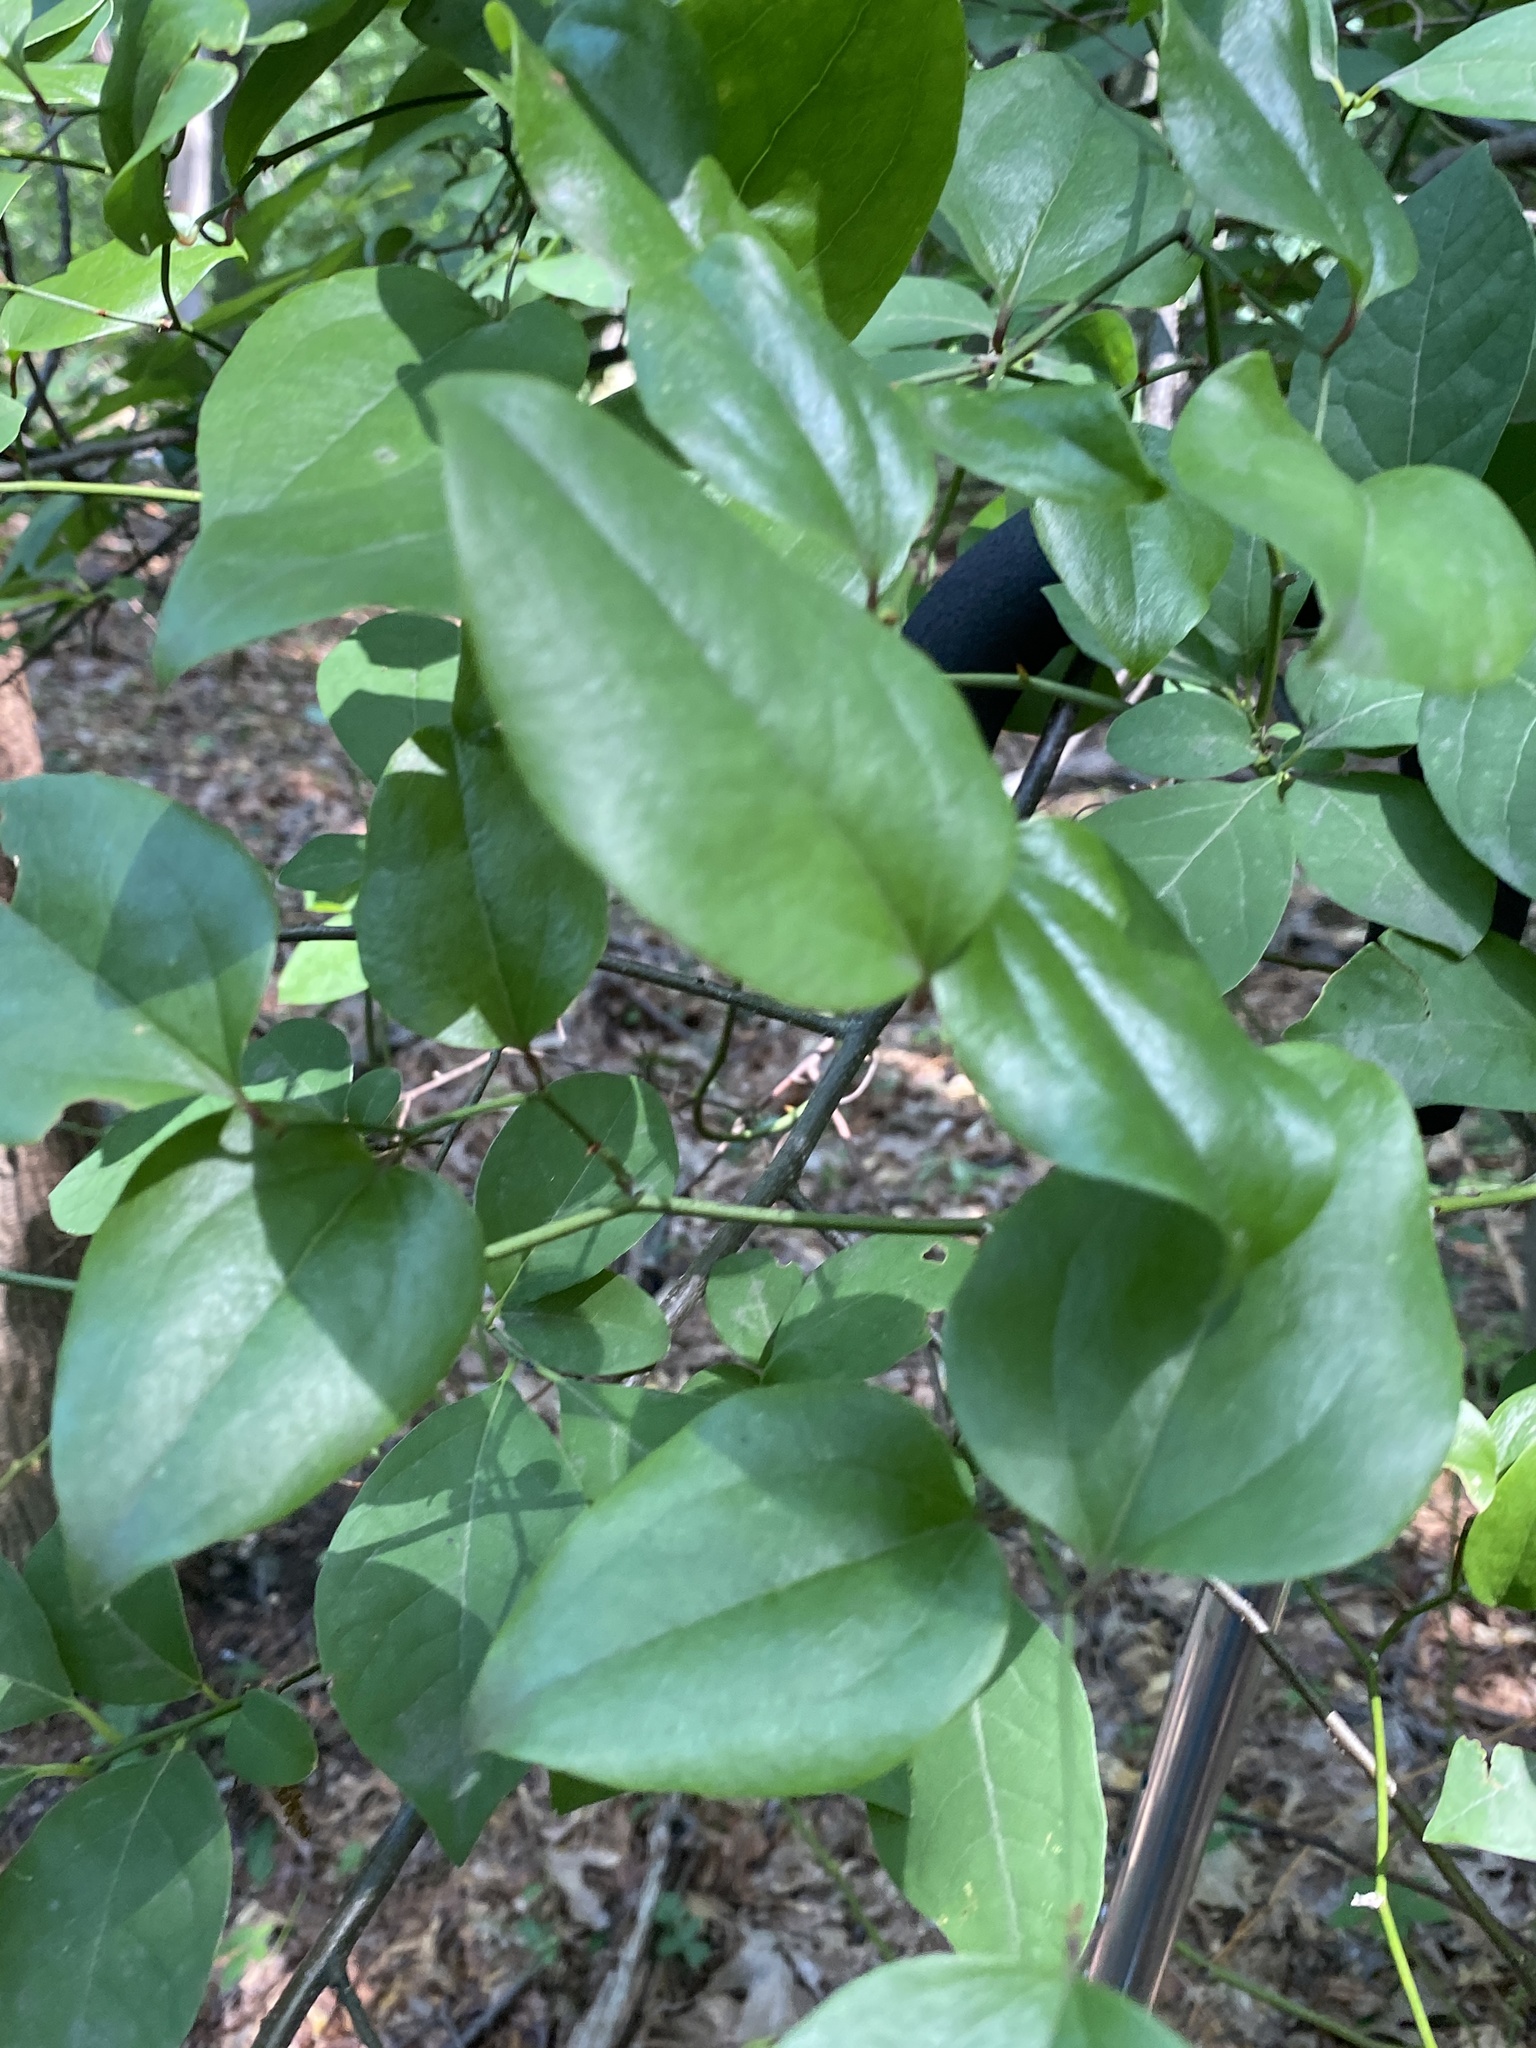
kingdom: Plantae
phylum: Tracheophyta
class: Liliopsida
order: Liliales
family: Smilacaceae
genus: Smilax
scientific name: Smilax rotundifolia
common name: Bullbriar
